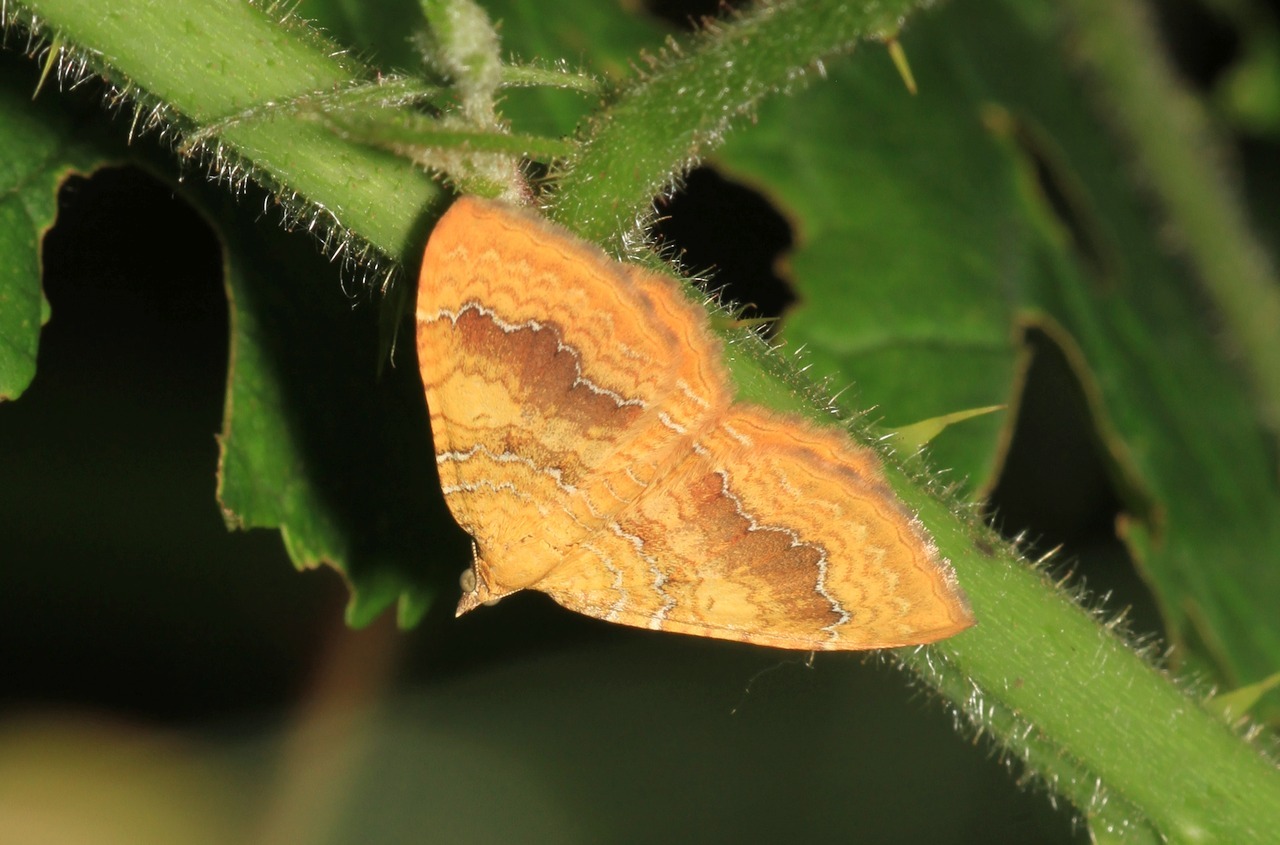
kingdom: Animalia
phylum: Arthropoda
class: Insecta
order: Lepidoptera
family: Geometridae
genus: Camptogramma
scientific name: Camptogramma bilineata
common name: Yellow shell
